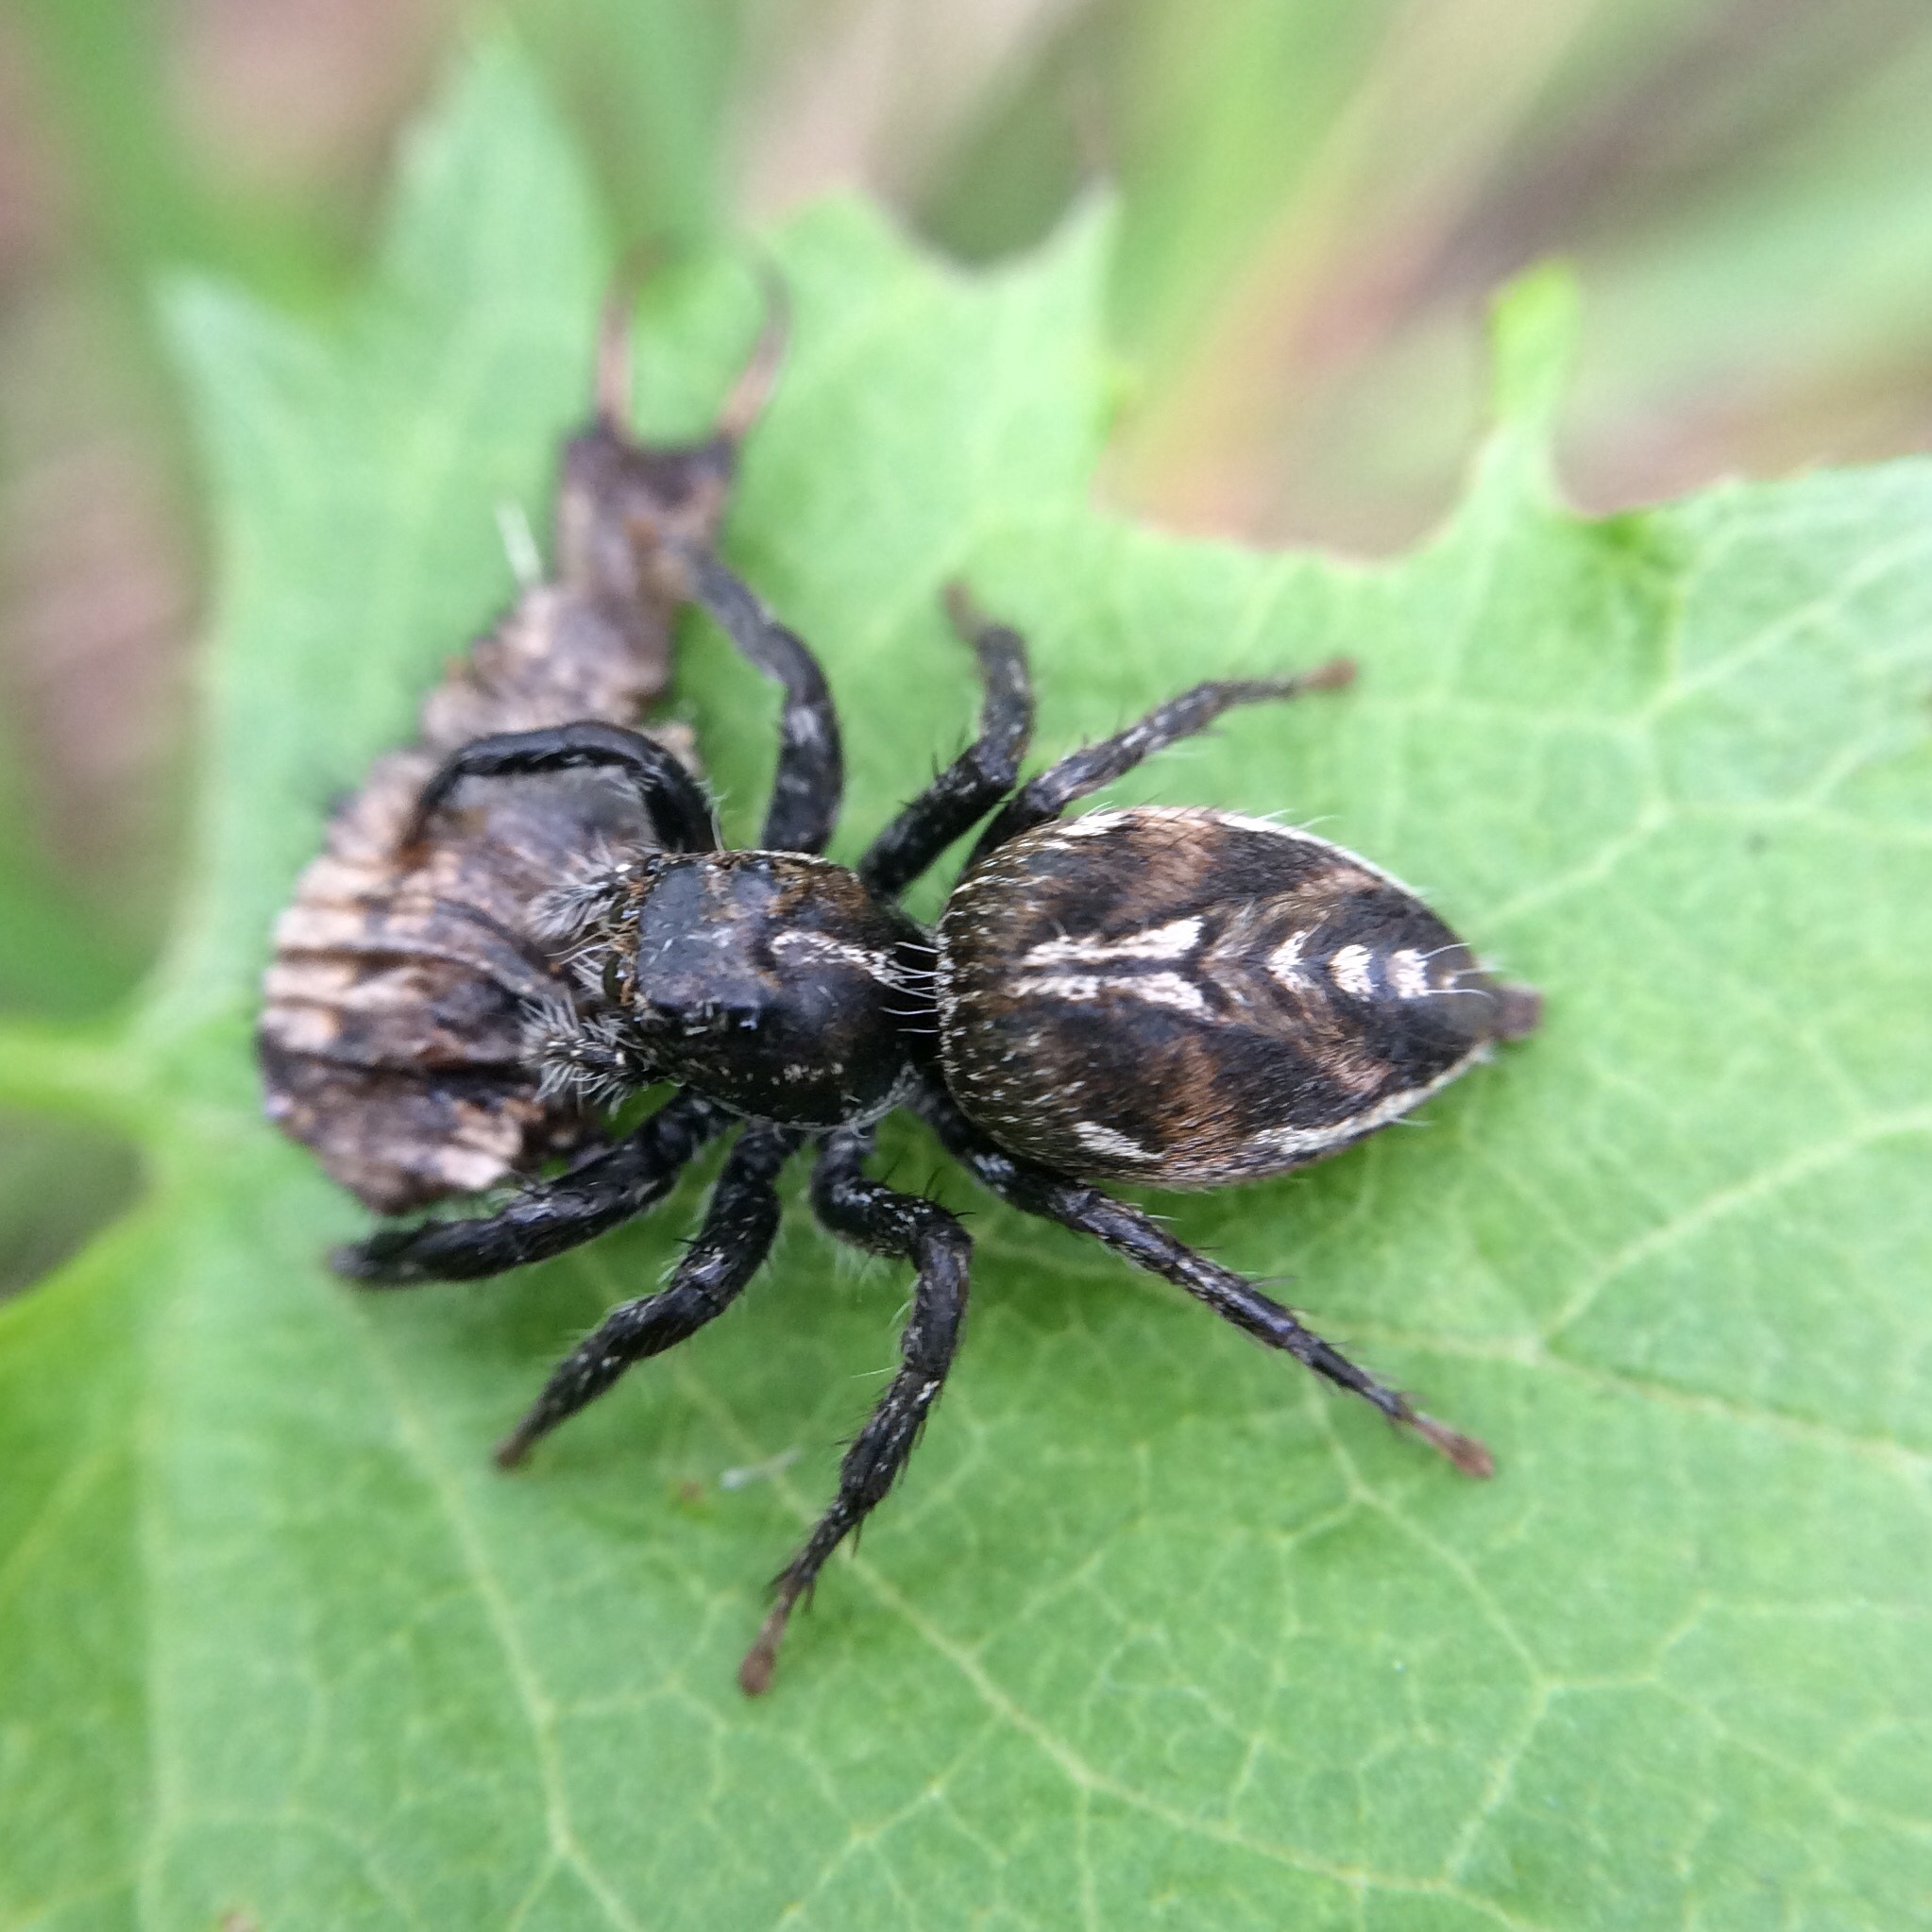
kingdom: Animalia
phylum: Arthropoda
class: Arachnida
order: Araneae
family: Salticidae
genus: Hyllus
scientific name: Hyllus argyrotoxus
